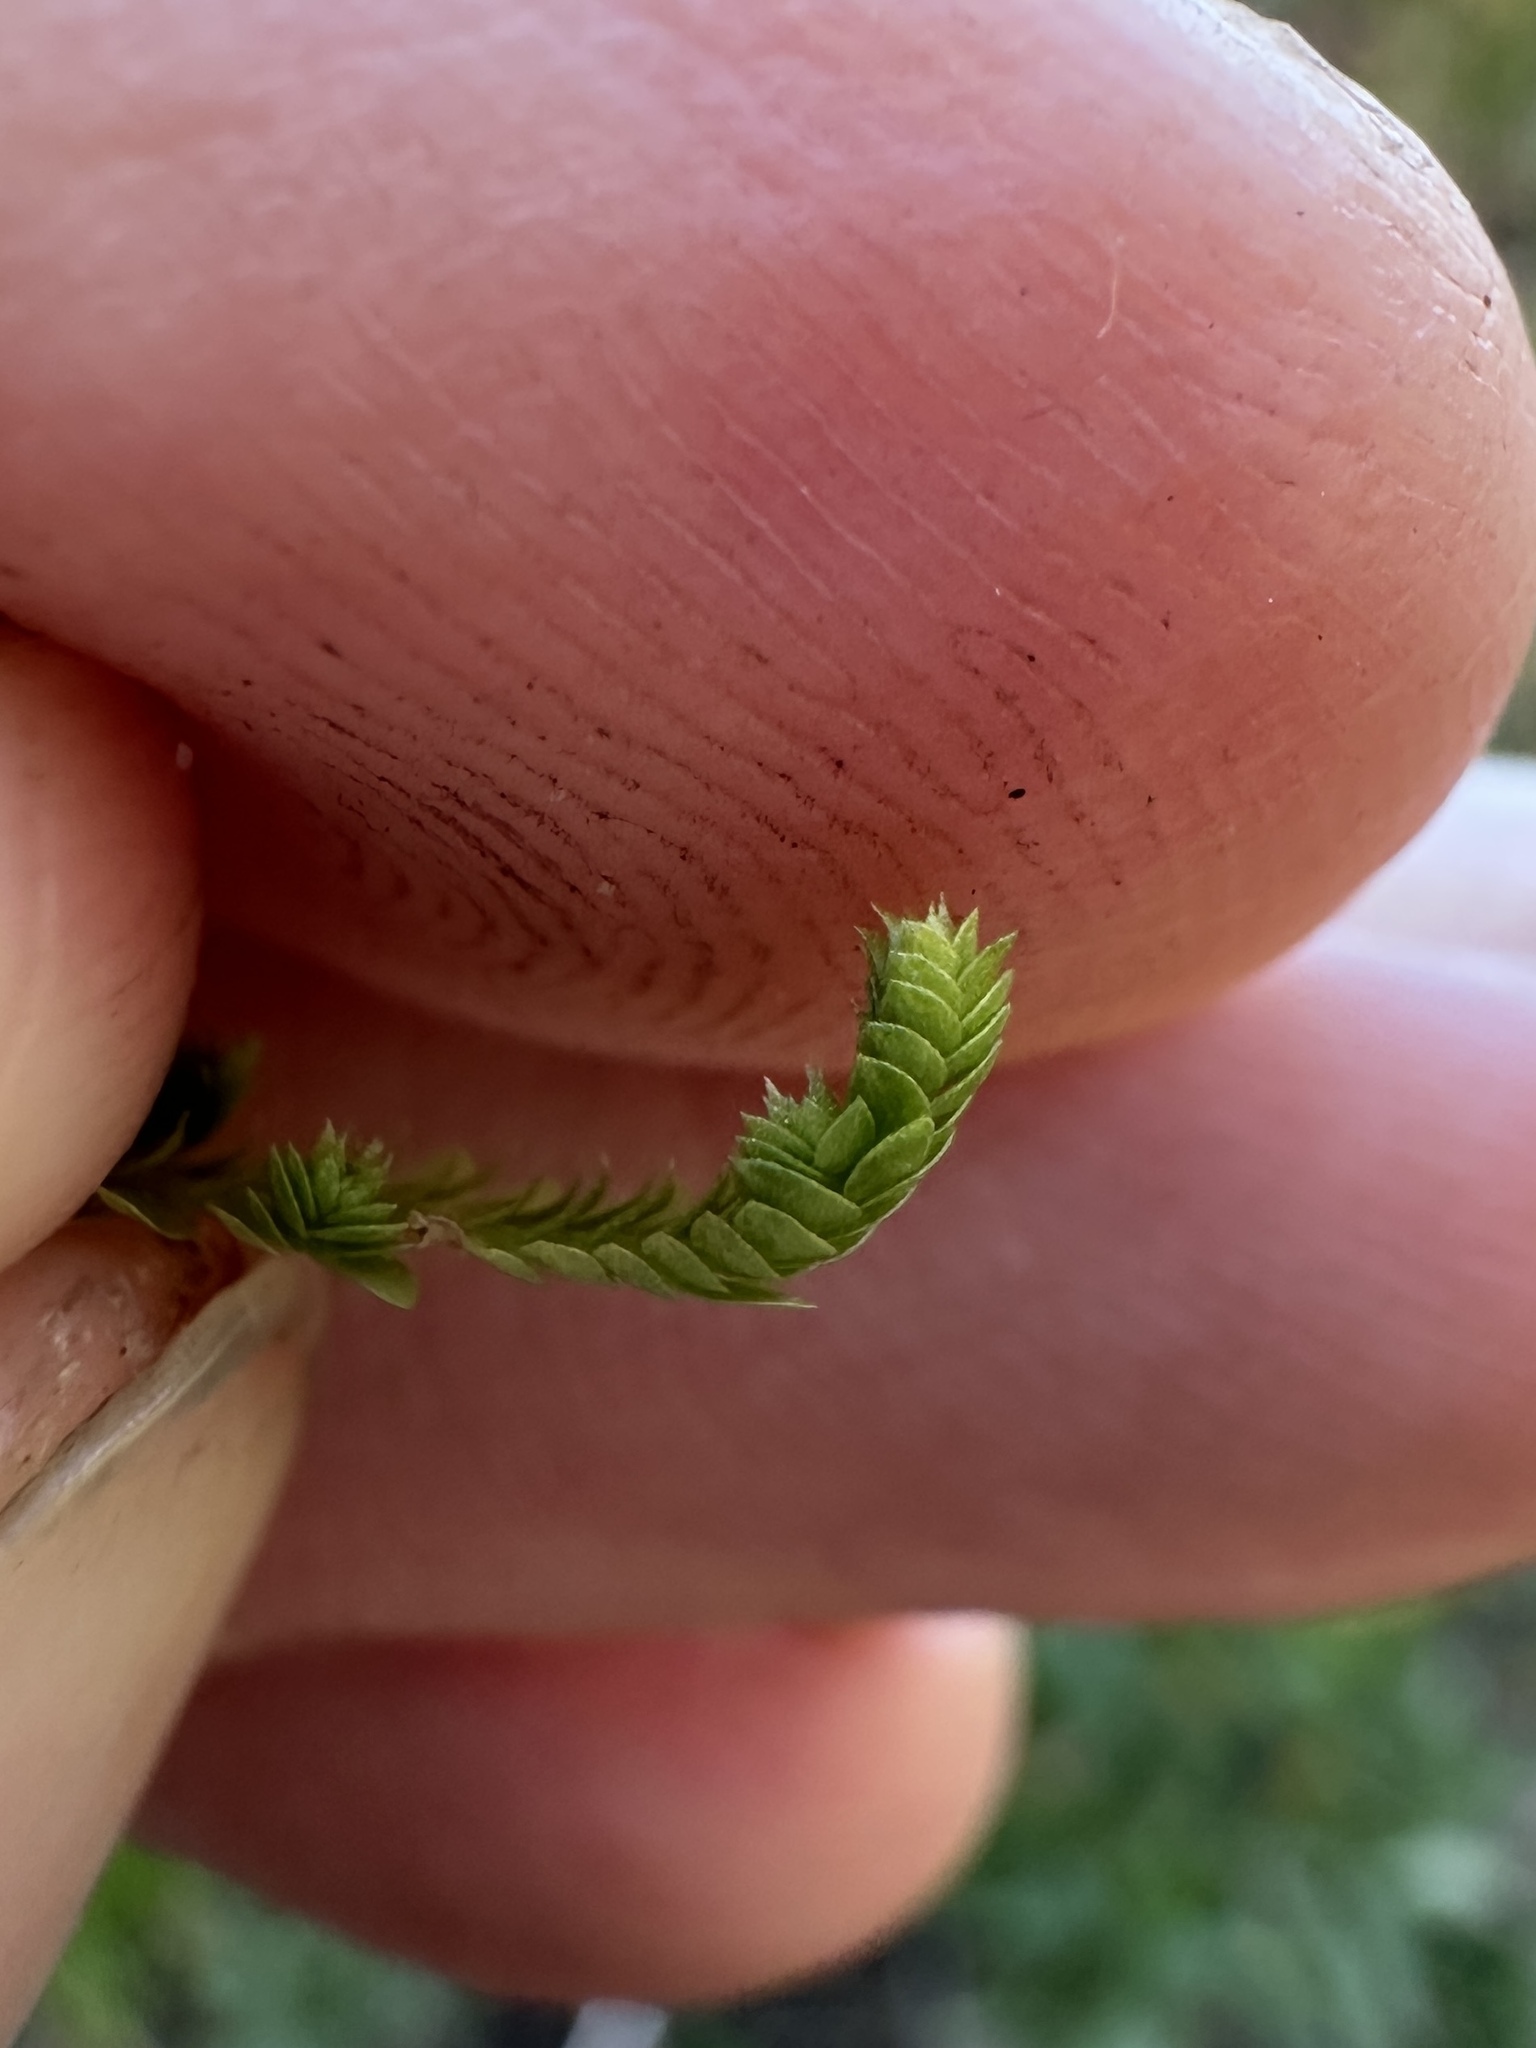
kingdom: Plantae
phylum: Tracheophyta
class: Lycopodiopsida
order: Selaginellales
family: Selaginellaceae
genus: Selaginella
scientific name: Selaginella apoda
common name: Creeping spikemoss
